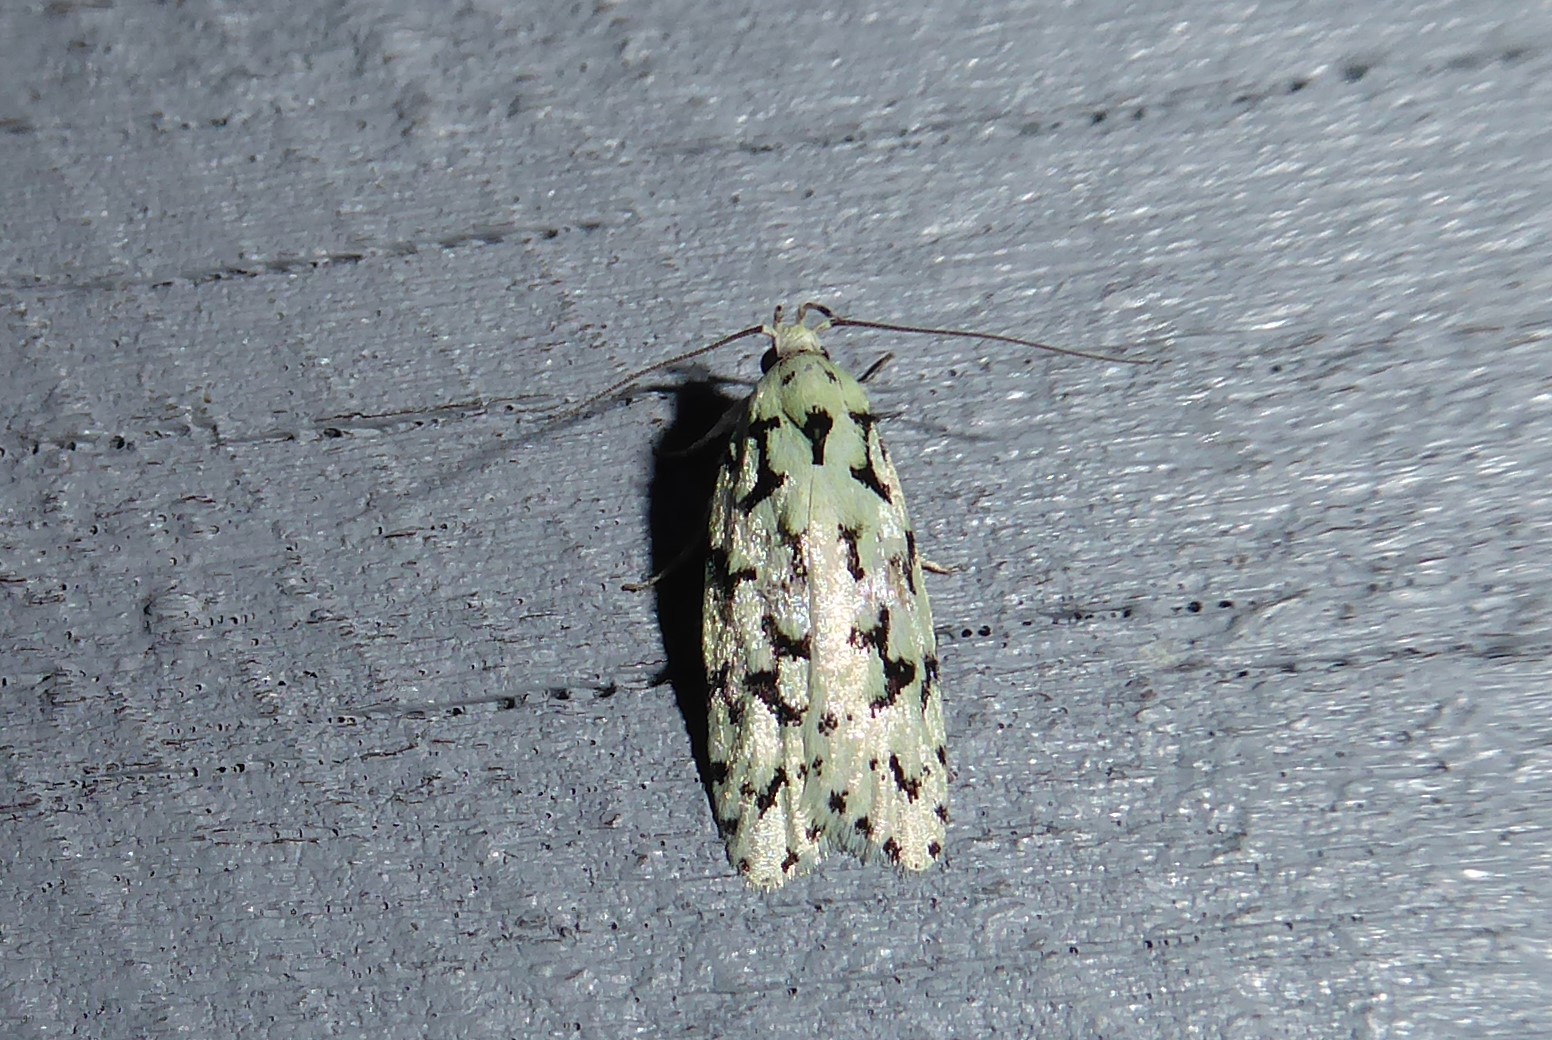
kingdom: Animalia
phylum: Arthropoda
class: Insecta
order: Lepidoptera
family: Oecophoridae
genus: Izatha
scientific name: Izatha huttoni
